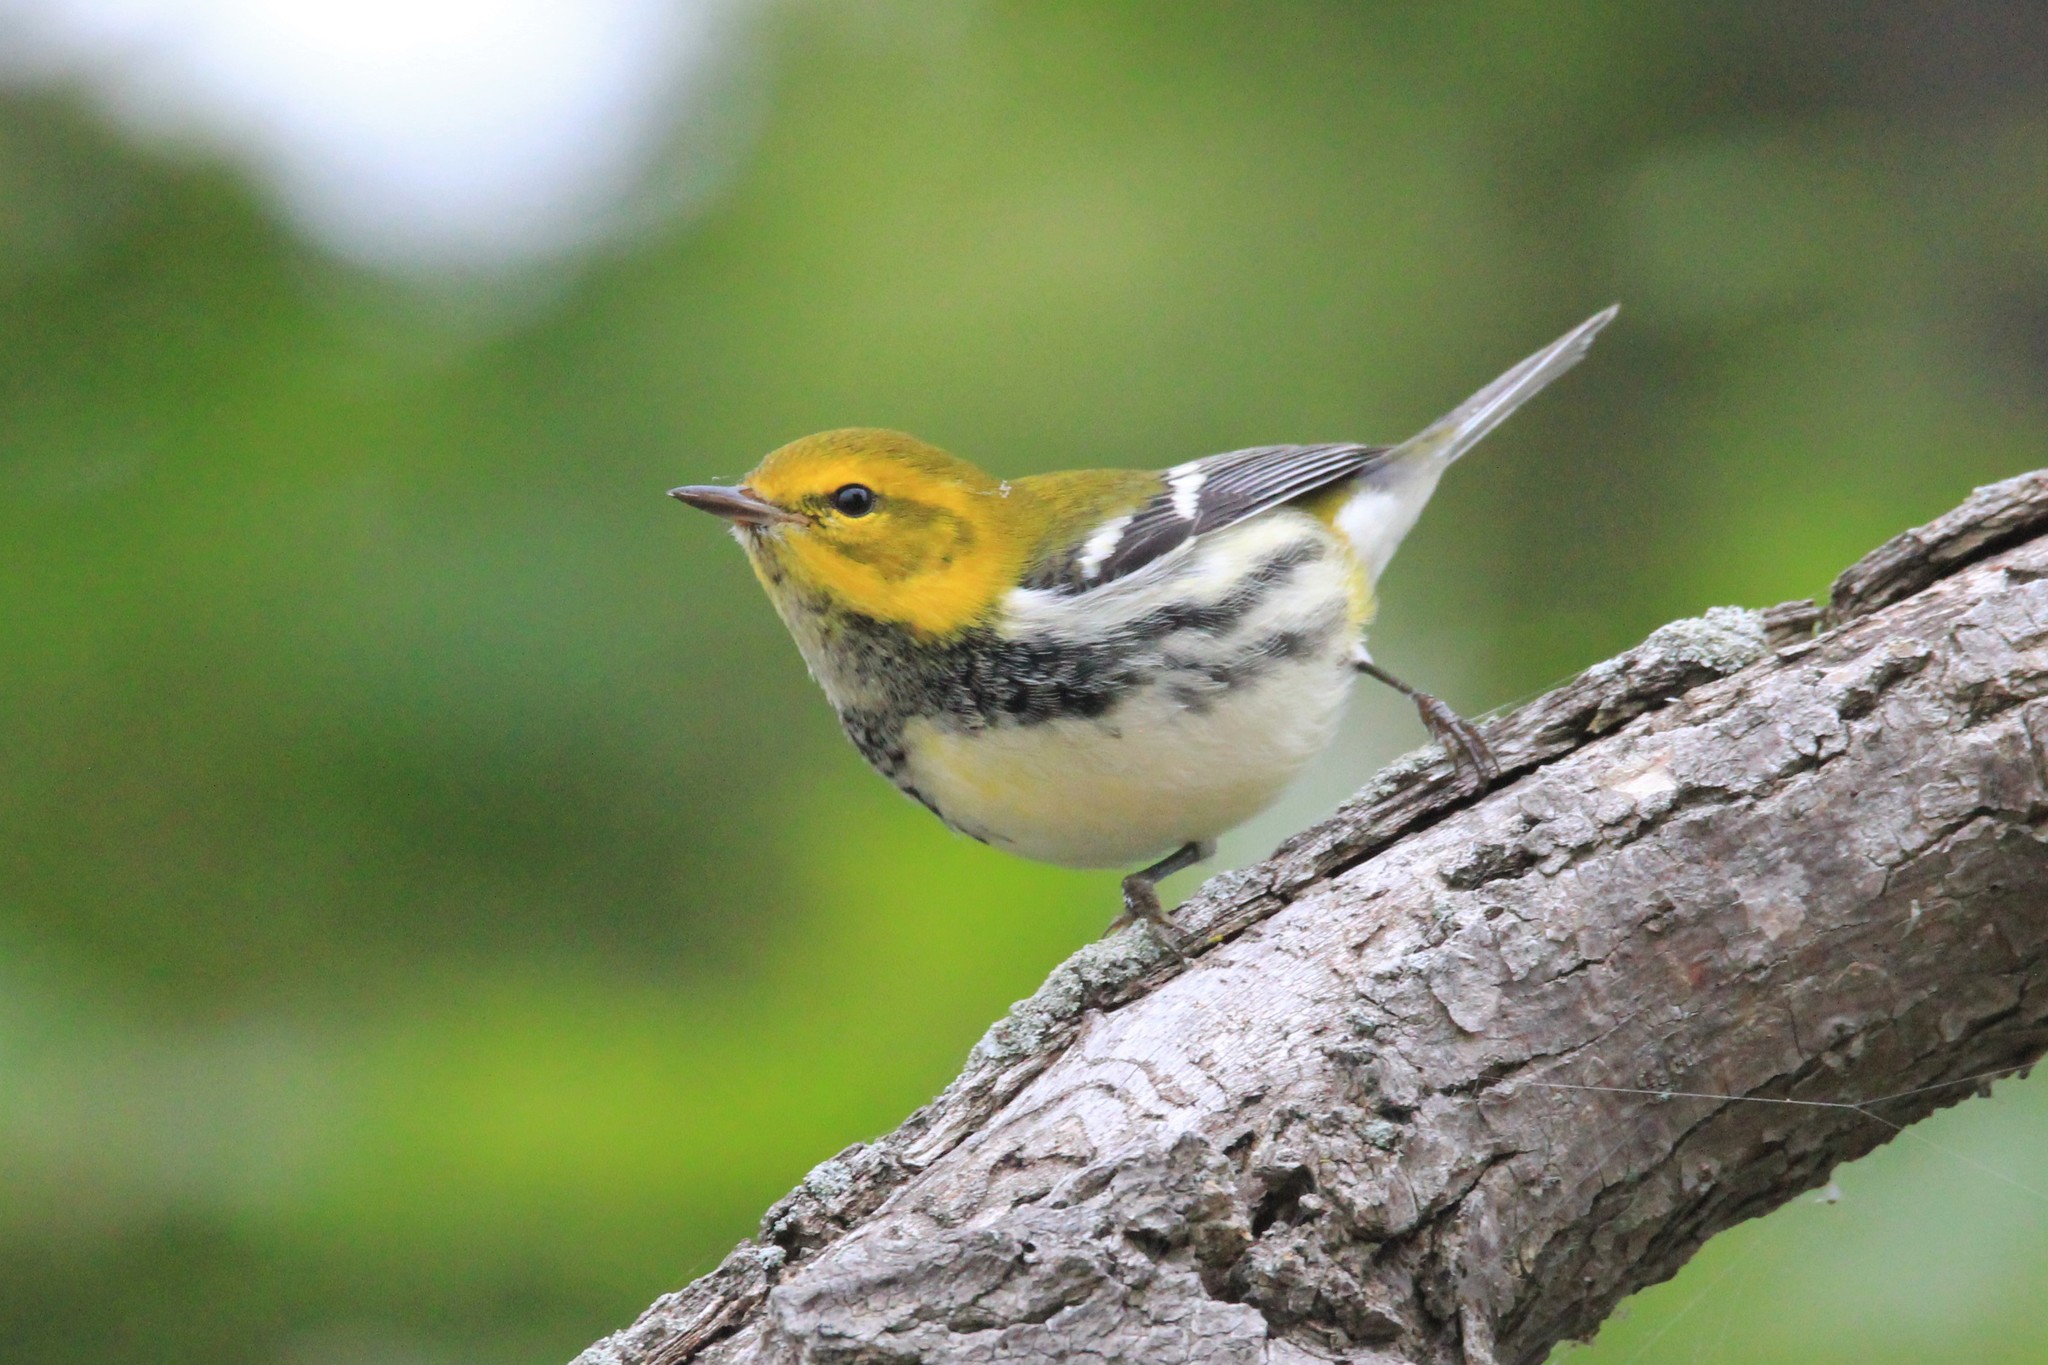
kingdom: Animalia
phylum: Chordata
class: Aves
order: Passeriformes
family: Parulidae
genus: Setophaga
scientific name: Setophaga virens
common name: Black-throated green warbler
